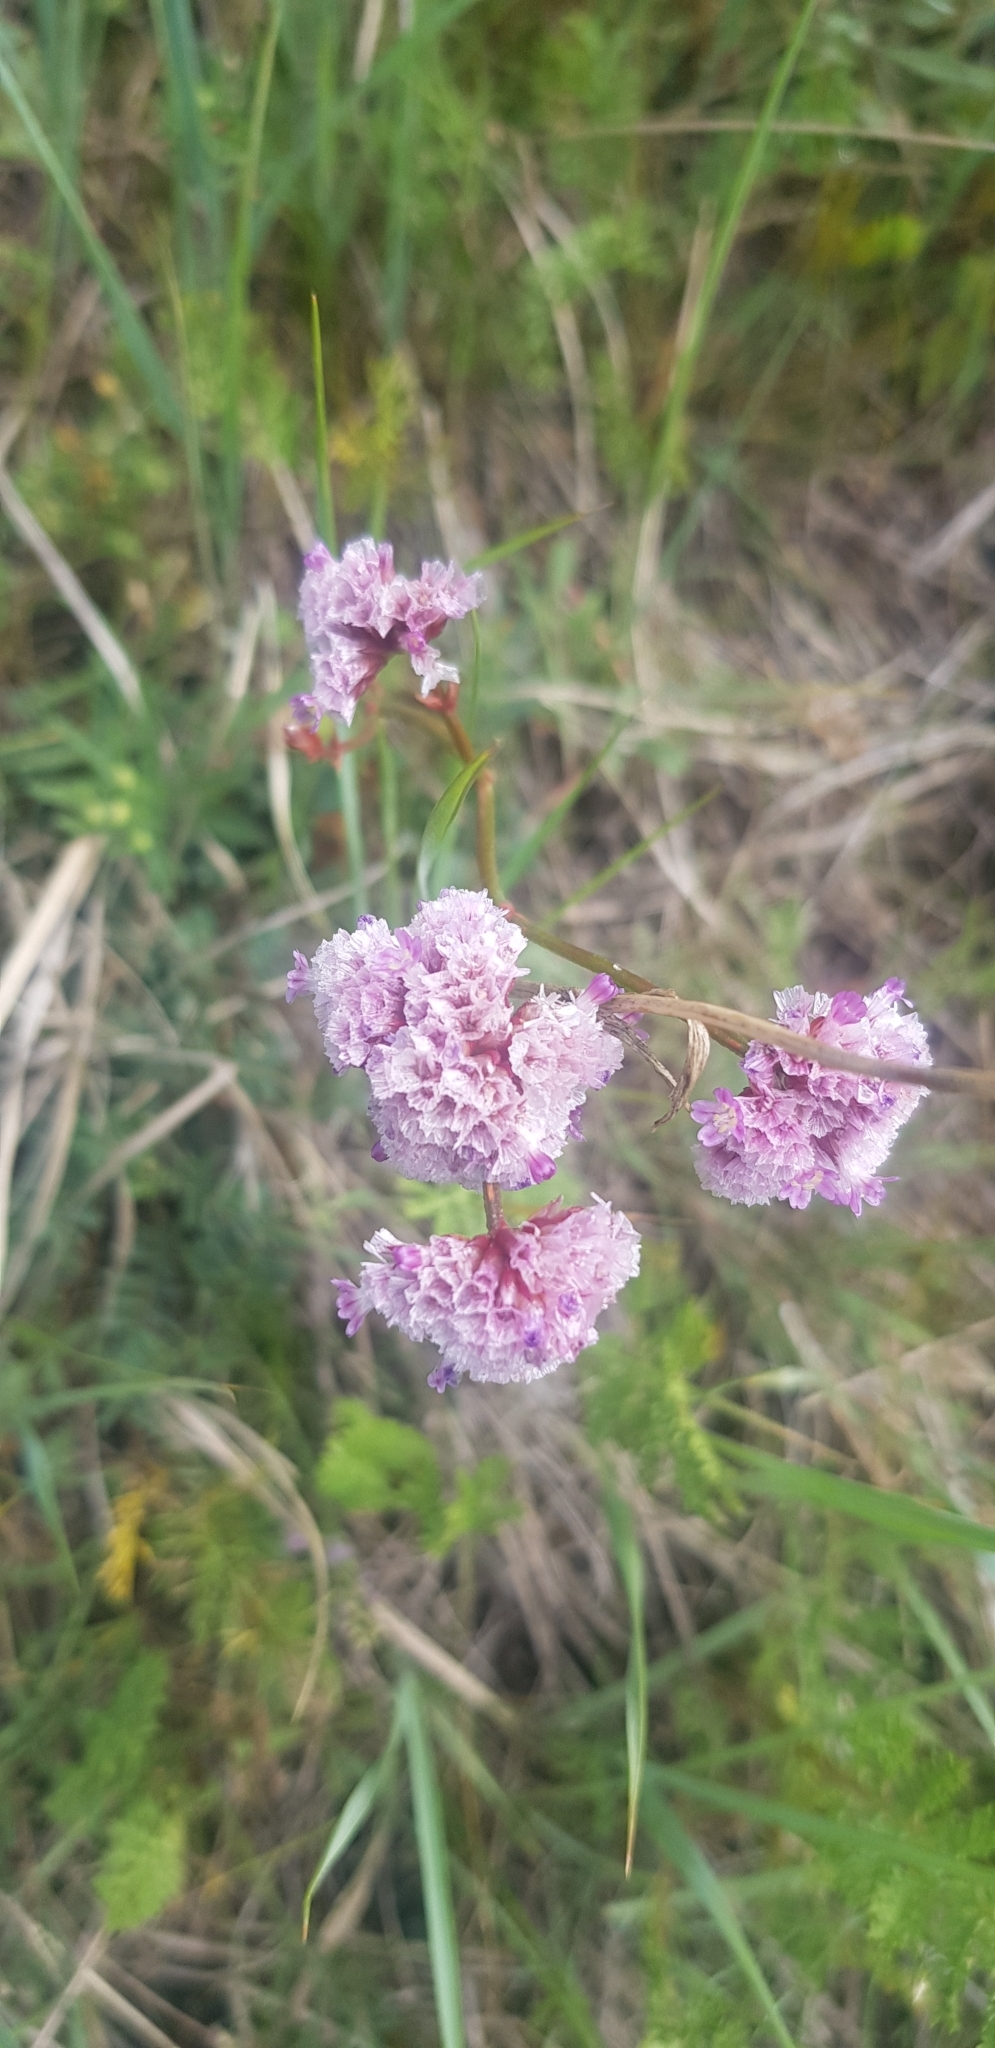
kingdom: Plantae
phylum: Tracheophyta
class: Magnoliopsida
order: Caryophyllales
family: Plumbaginaceae
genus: Limonium
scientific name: Limonium flexuosum
